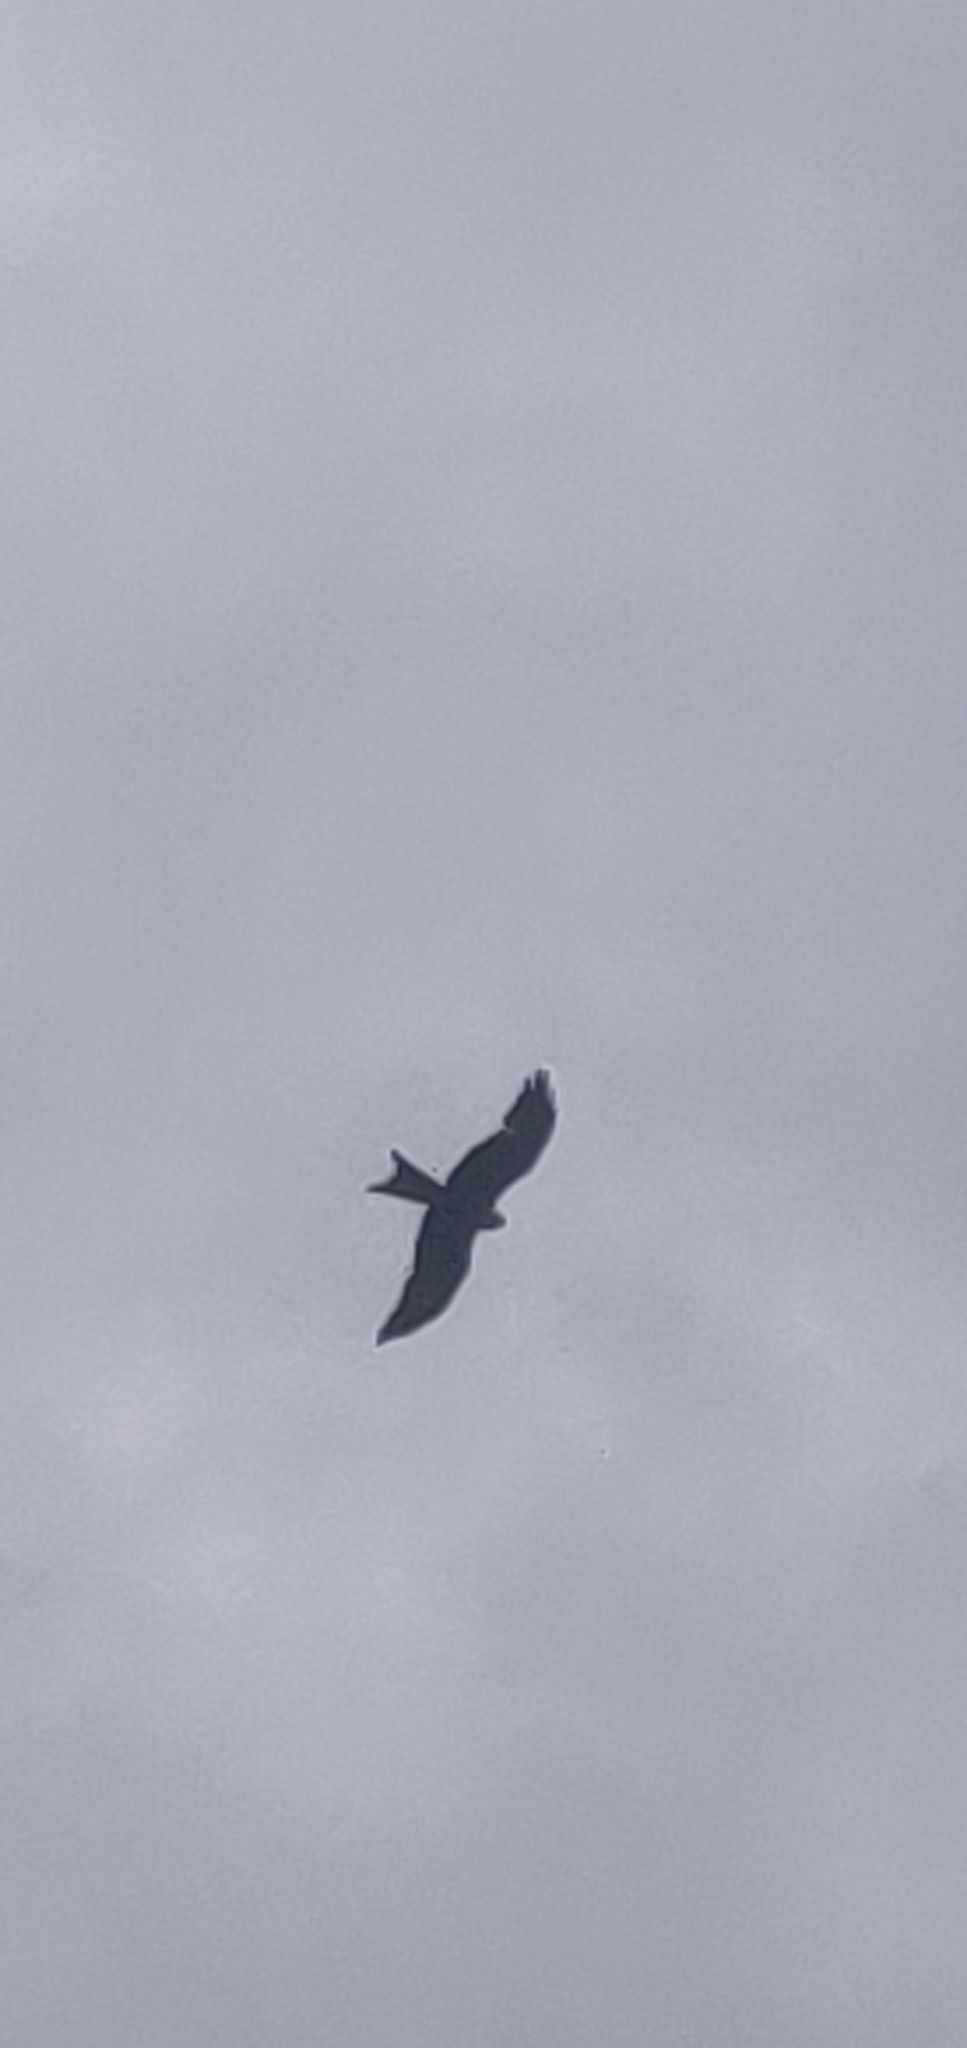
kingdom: Animalia
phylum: Chordata
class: Aves
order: Accipitriformes
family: Accipitridae
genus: Milvus
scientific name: Milvus milvus
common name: Red kite
